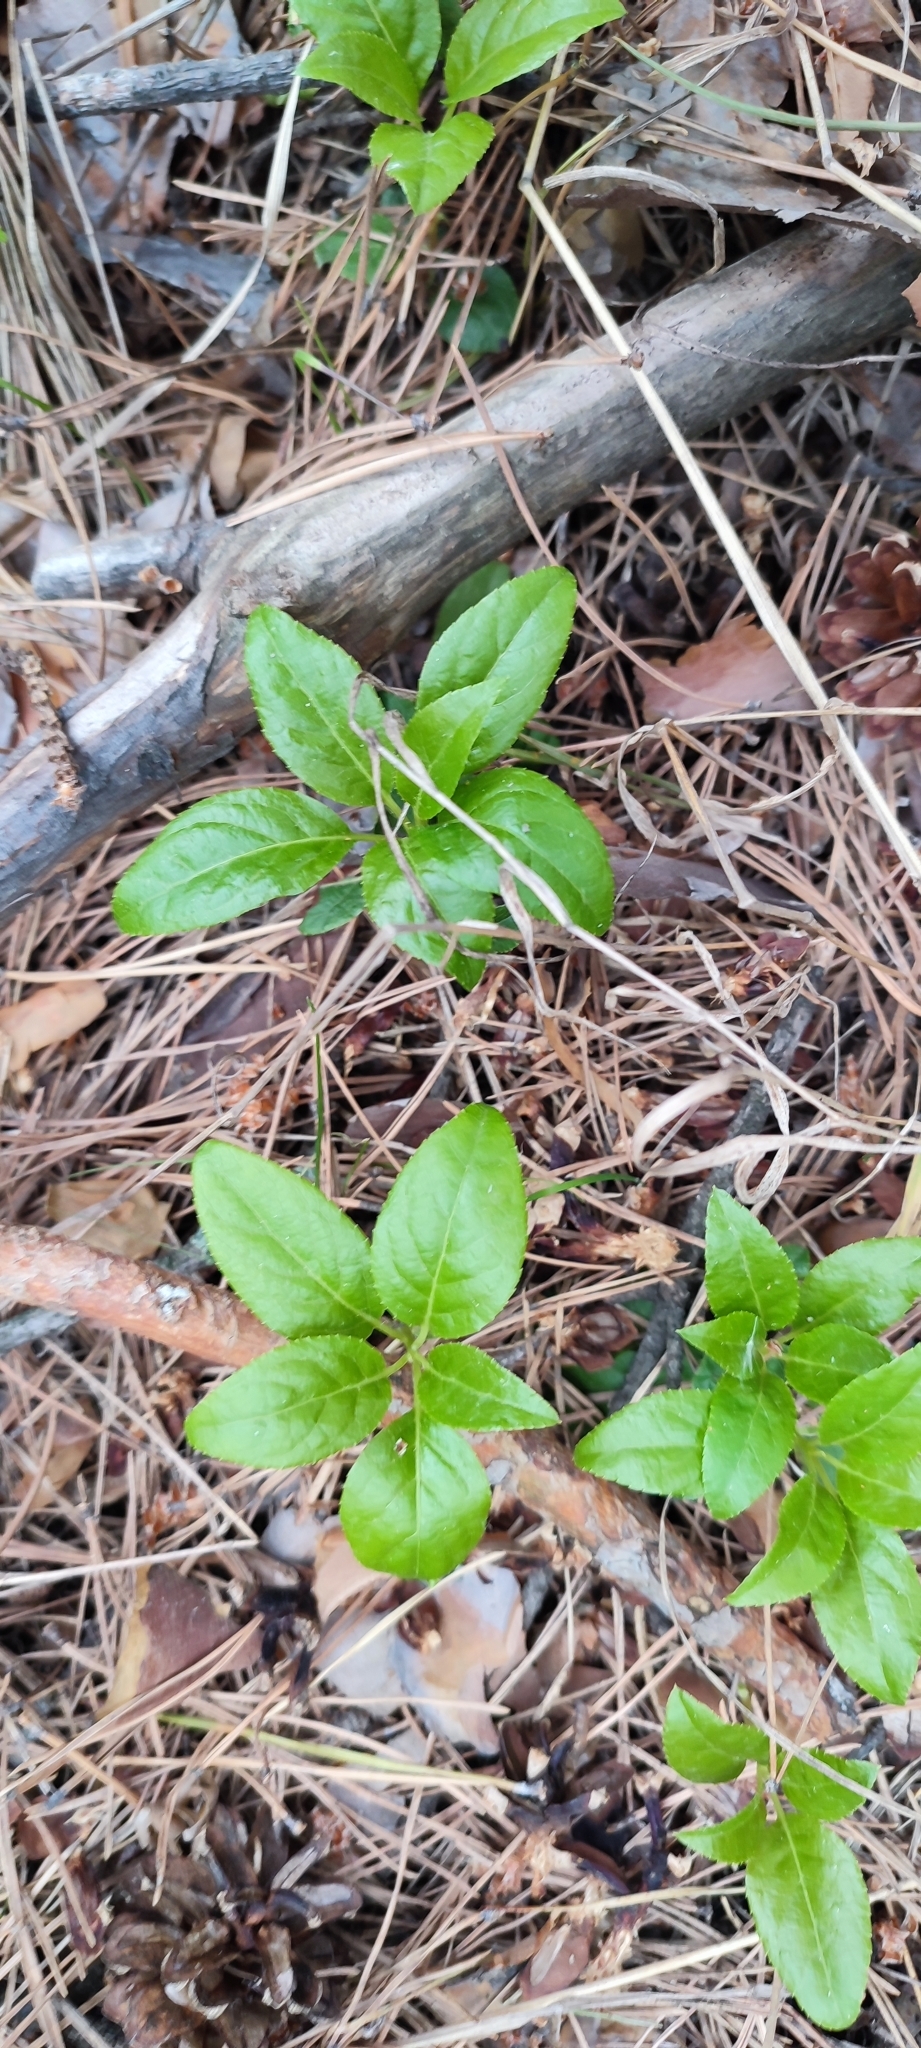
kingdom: Plantae
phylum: Tracheophyta
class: Magnoliopsida
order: Ericales
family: Ericaceae
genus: Orthilia
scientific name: Orthilia secunda
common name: One-sided orthilia
